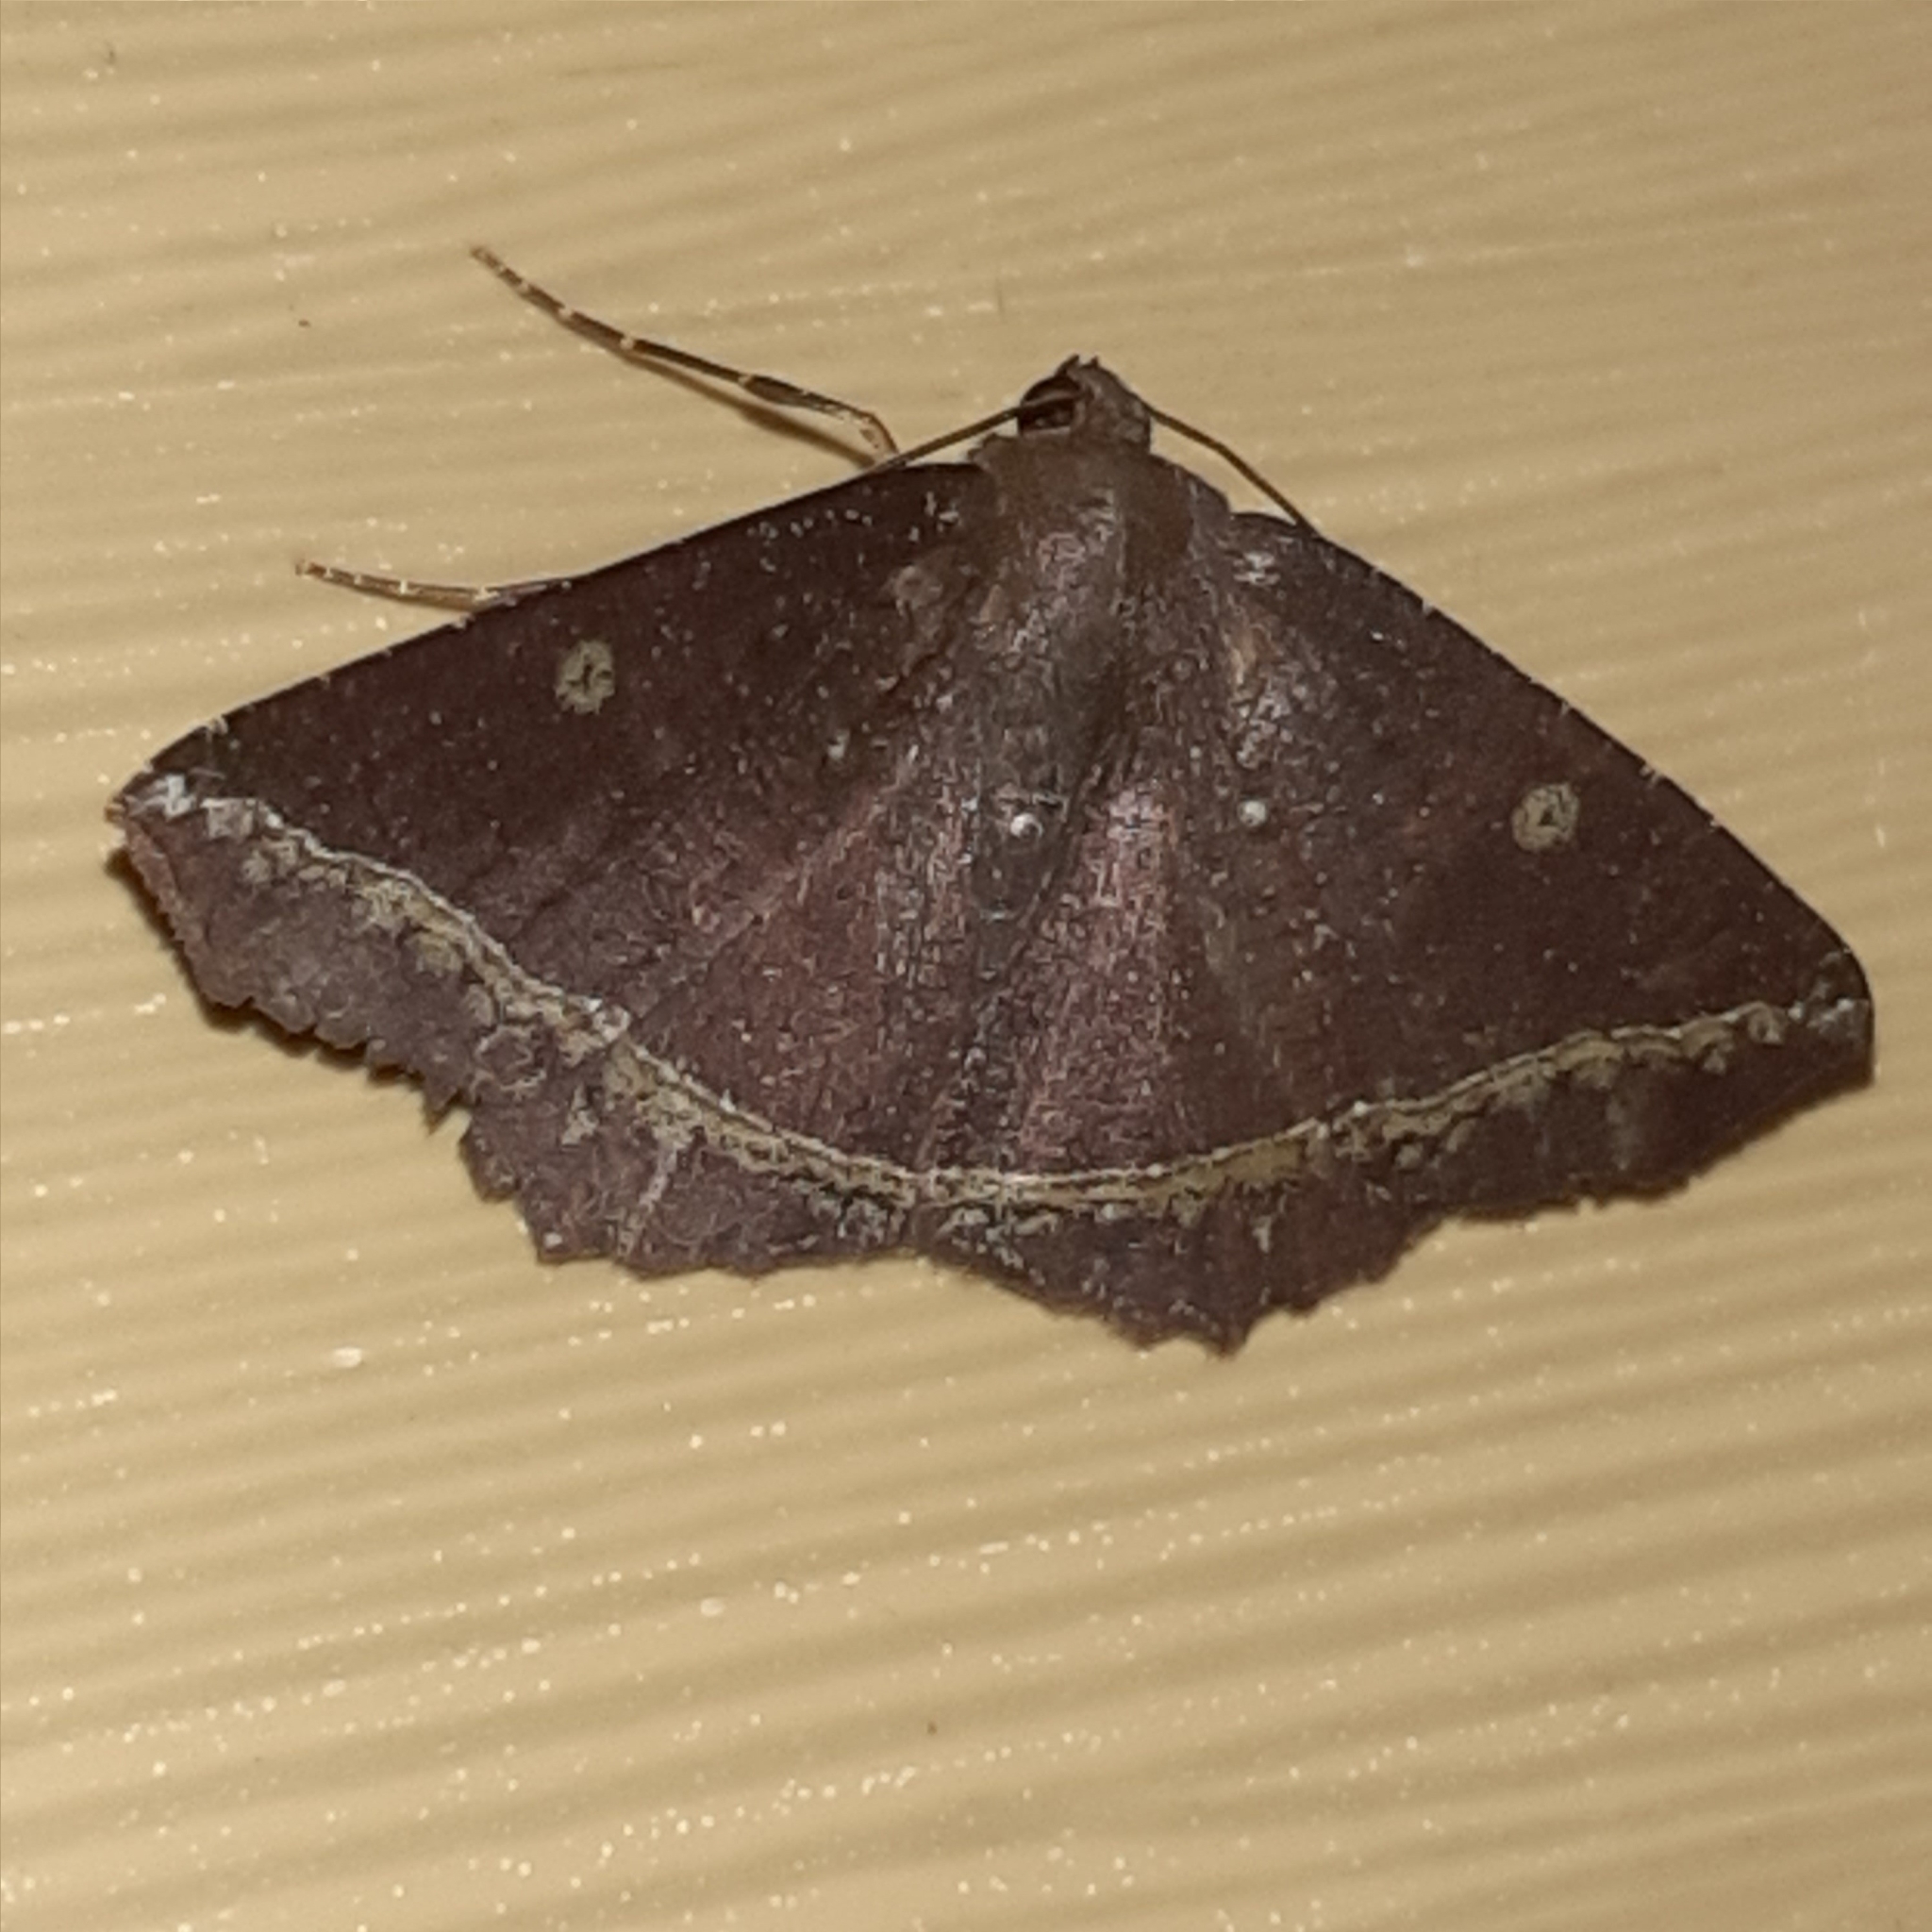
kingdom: Animalia
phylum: Arthropoda
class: Insecta
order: Lepidoptera
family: Geometridae
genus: Synnomos
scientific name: Synnomos firmamentaria
